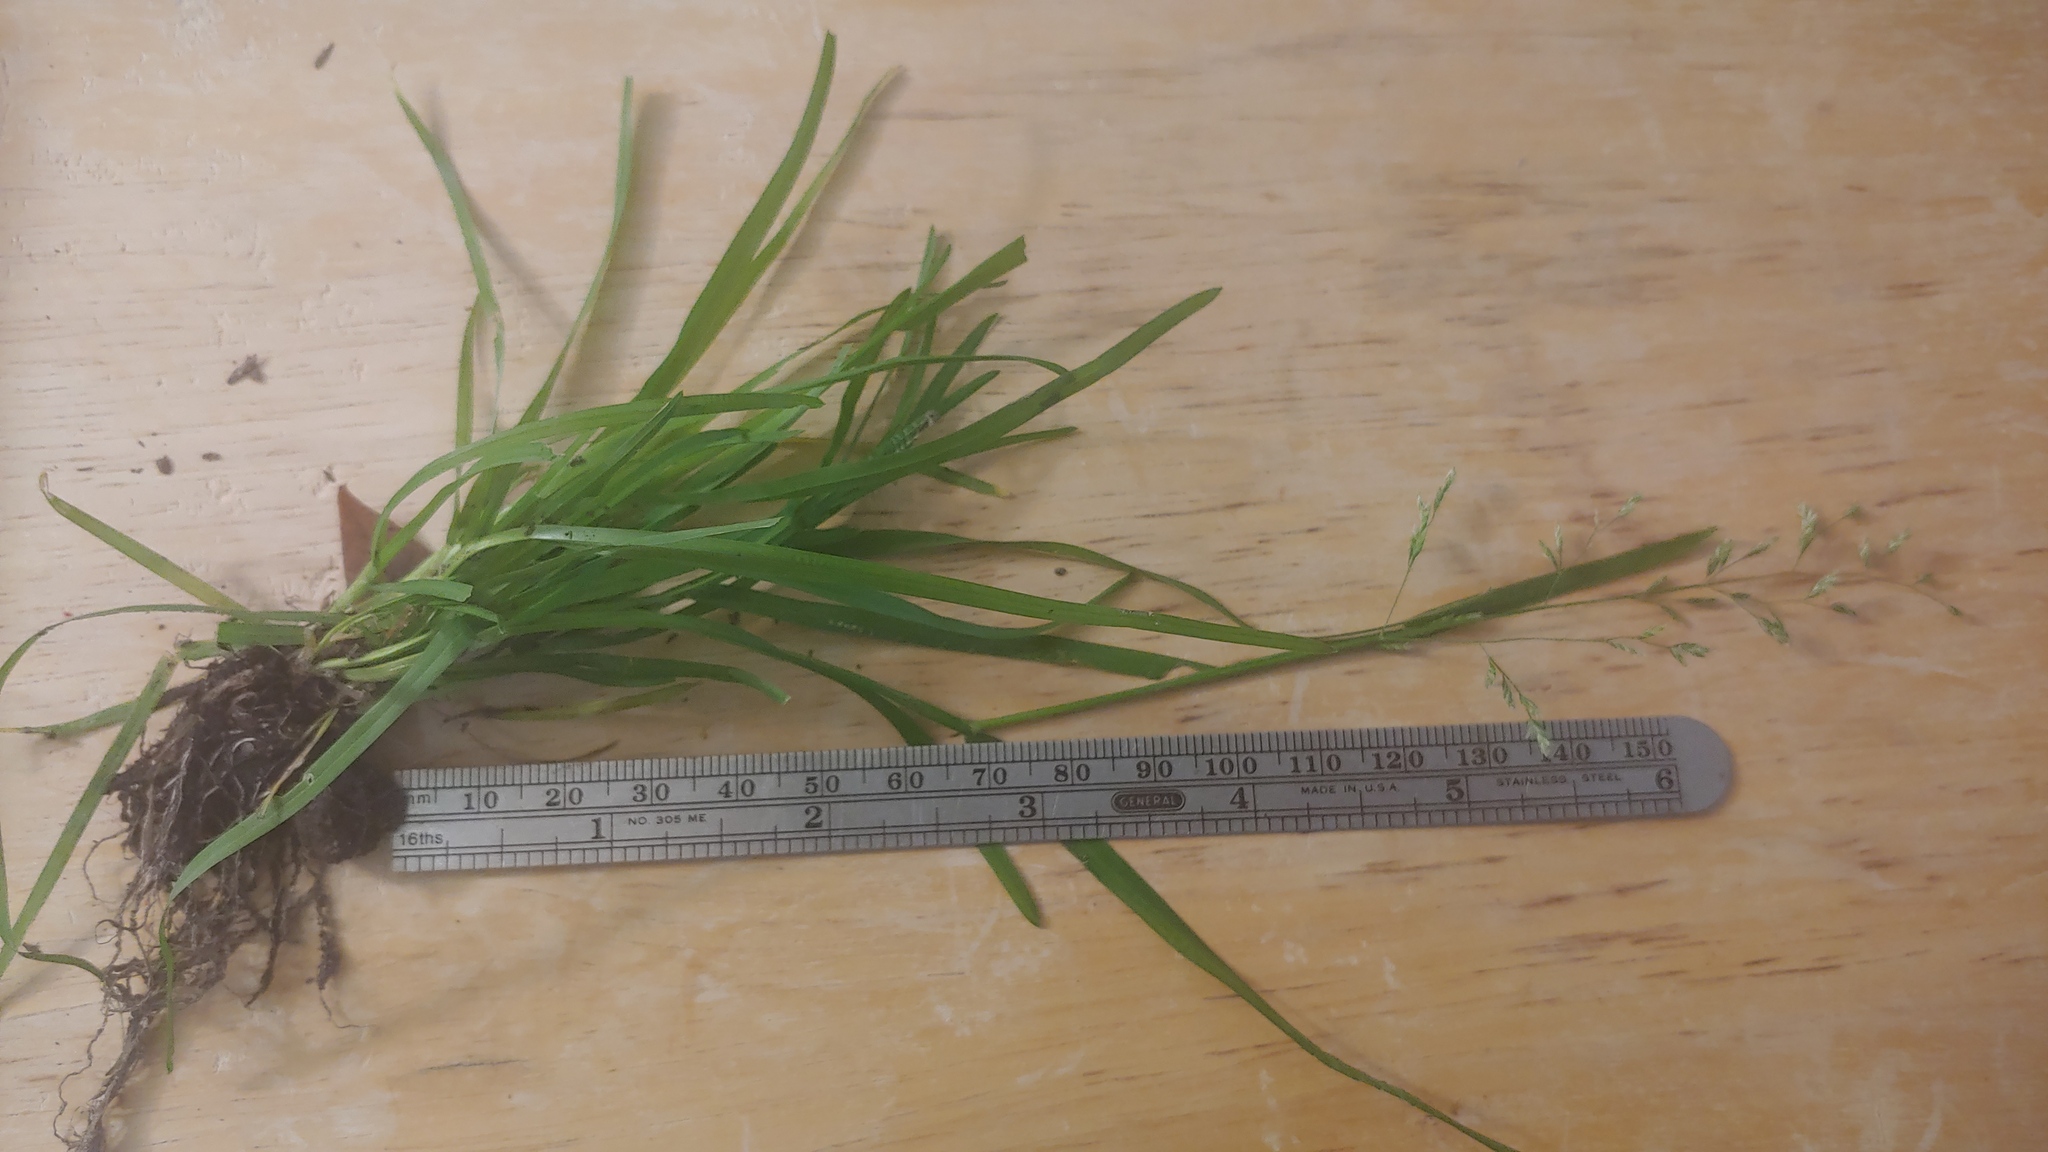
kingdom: Plantae
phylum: Tracheophyta
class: Liliopsida
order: Poales
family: Poaceae
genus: Poa
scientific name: Poa annua
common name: Annual bluegrass
